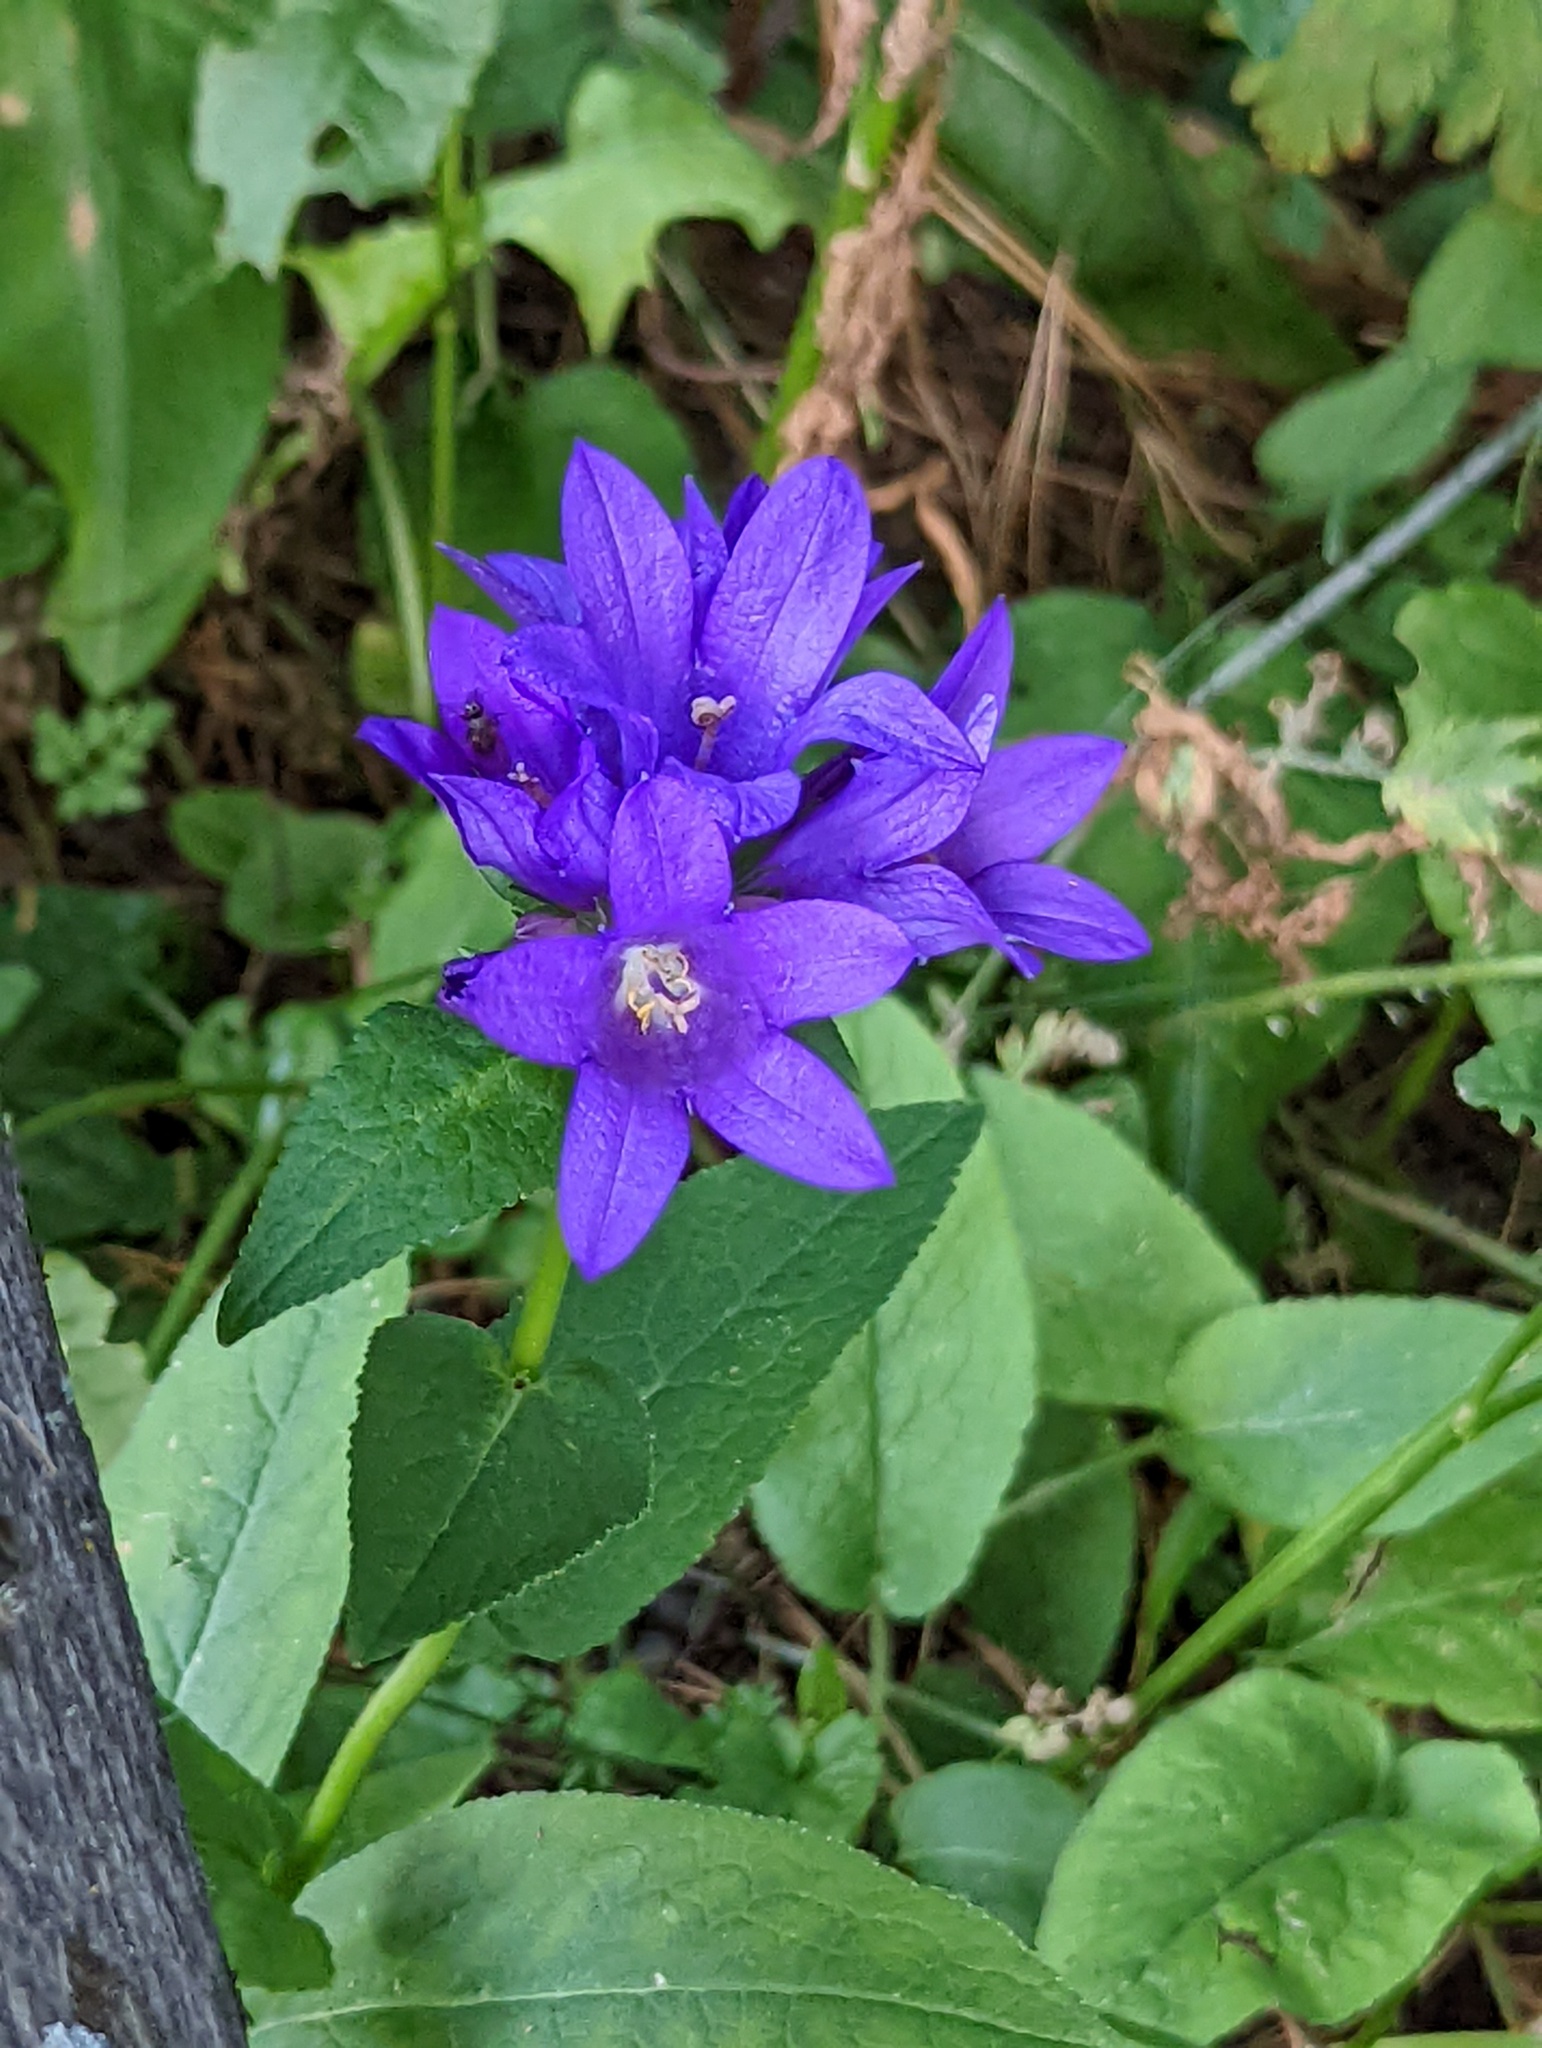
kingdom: Plantae
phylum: Tracheophyta
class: Magnoliopsida
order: Asterales
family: Campanulaceae
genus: Campanula
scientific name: Campanula glomerata
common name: Clustered bellflower
